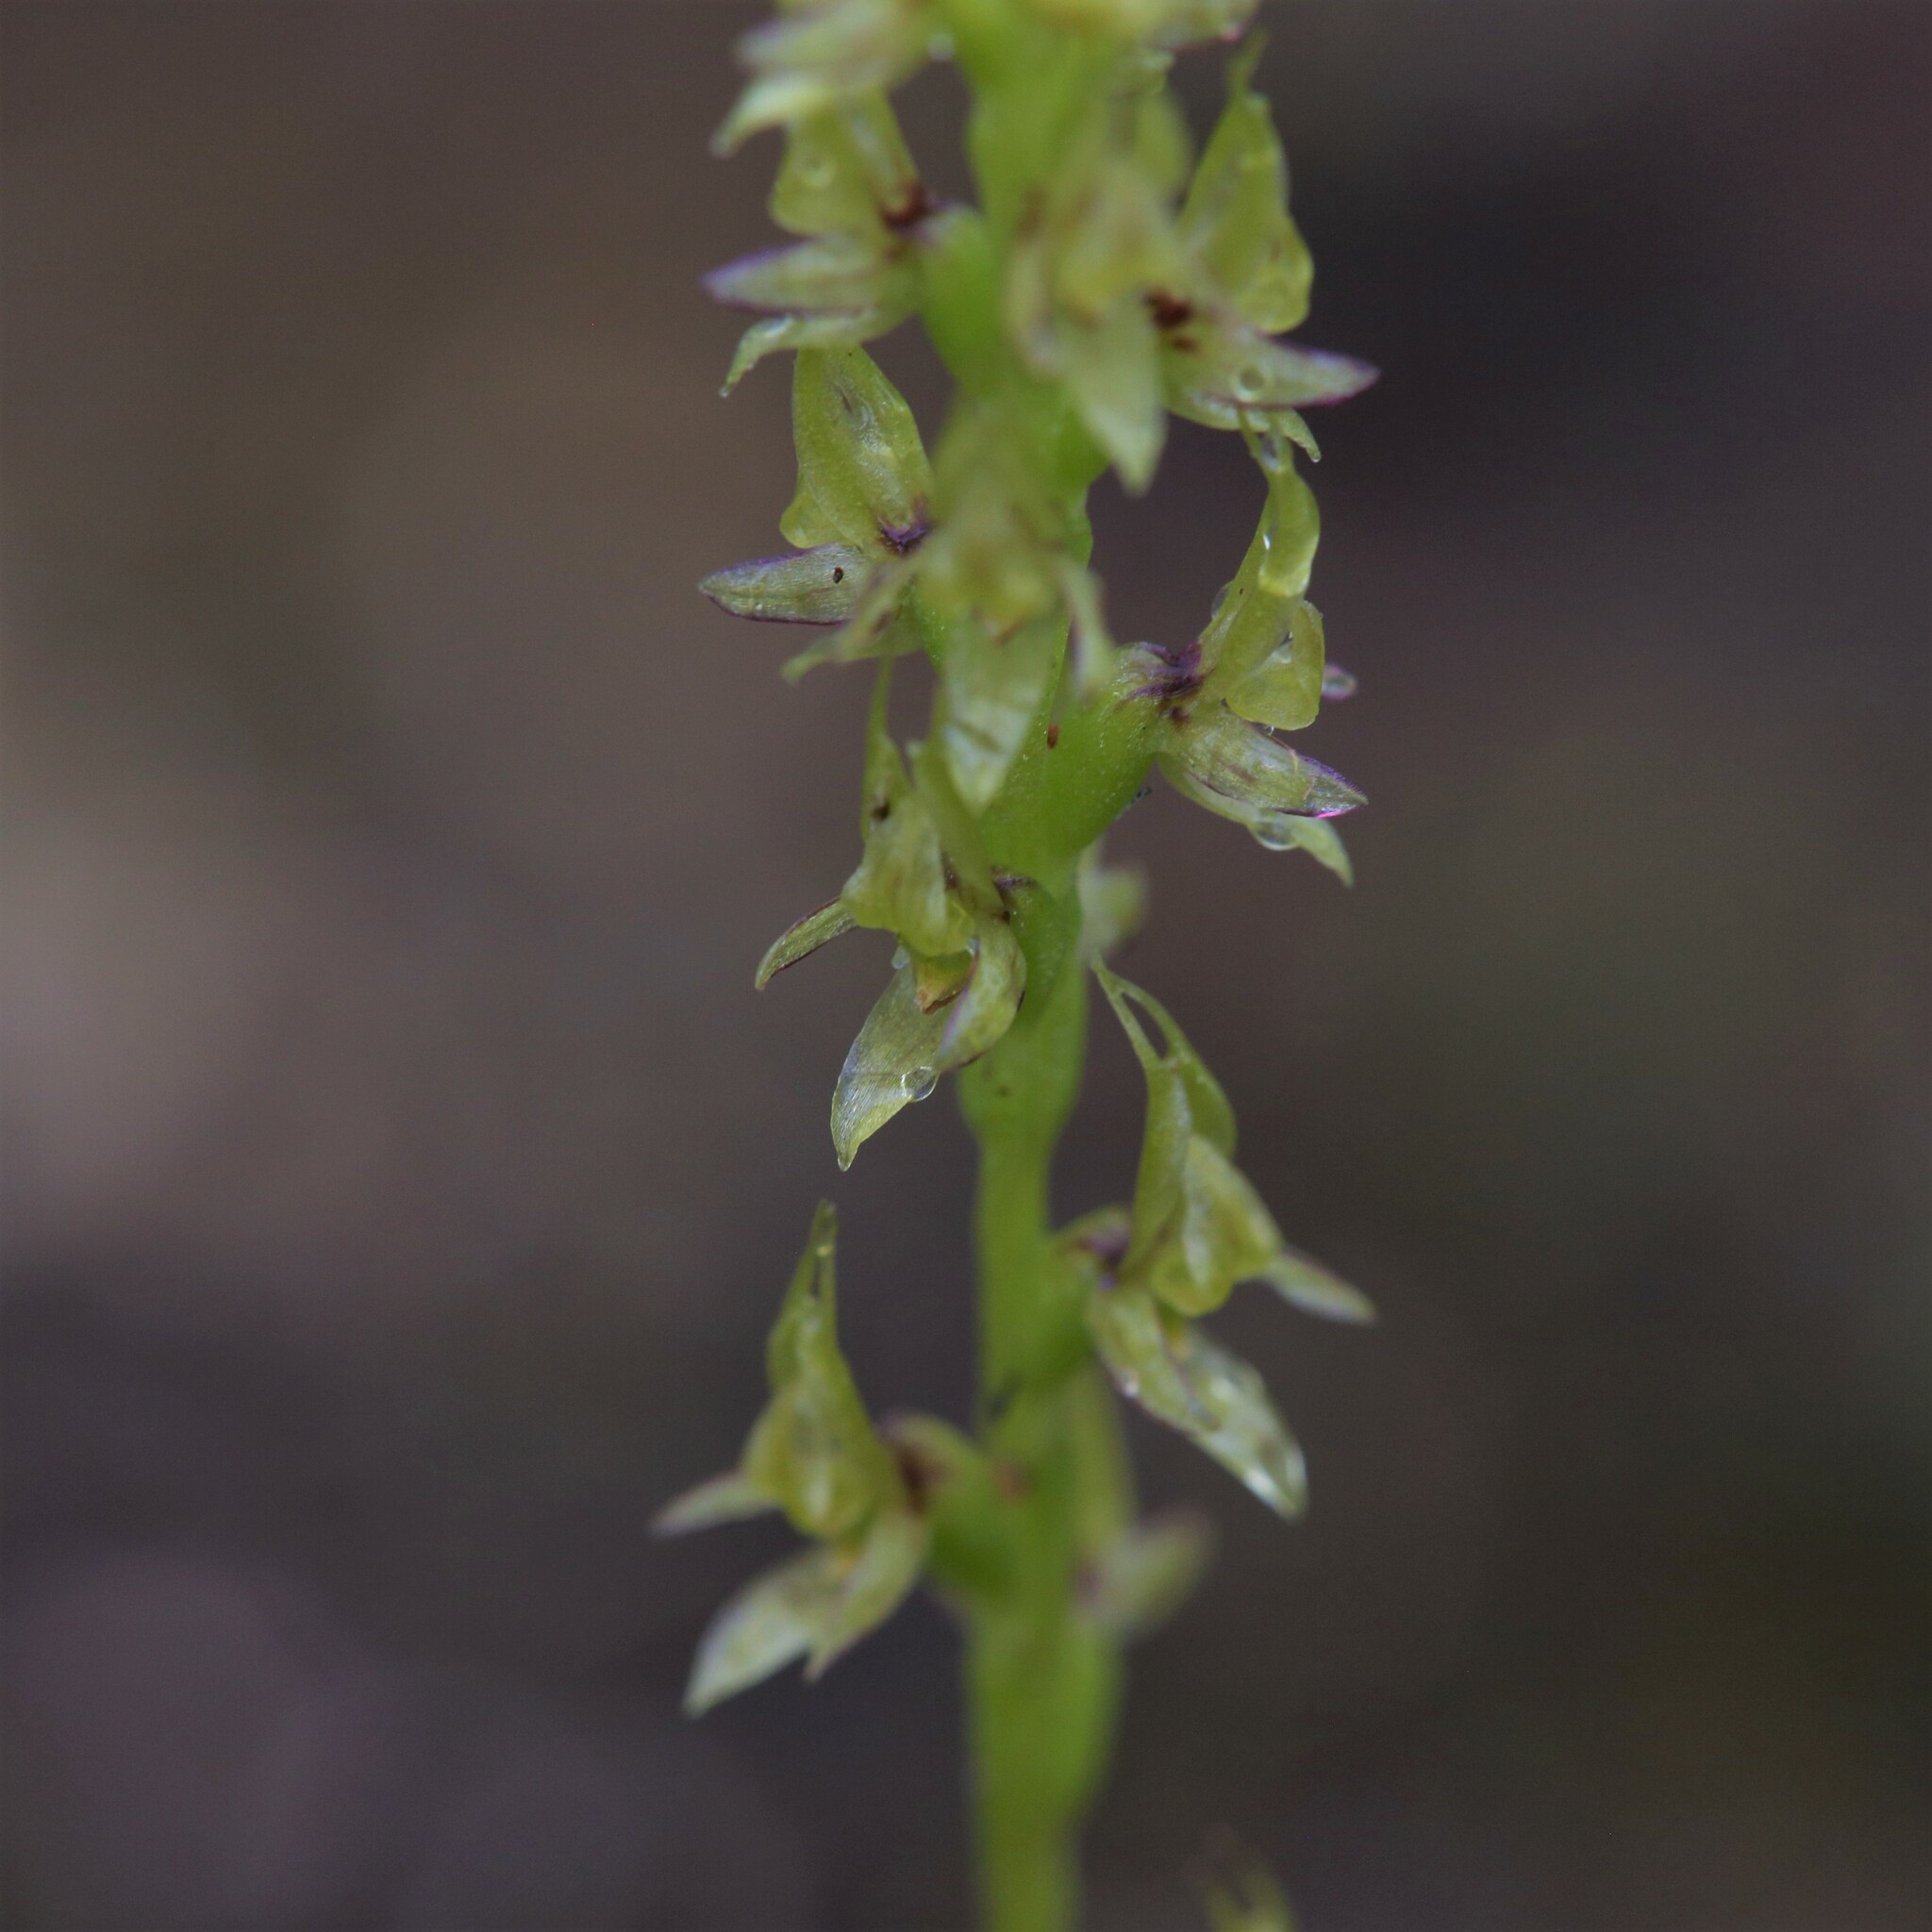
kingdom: Plantae
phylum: Tracheophyta
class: Liliopsida
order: Asparagales
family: Orchidaceae
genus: Prasophyllum
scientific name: Prasophyllum gracile
